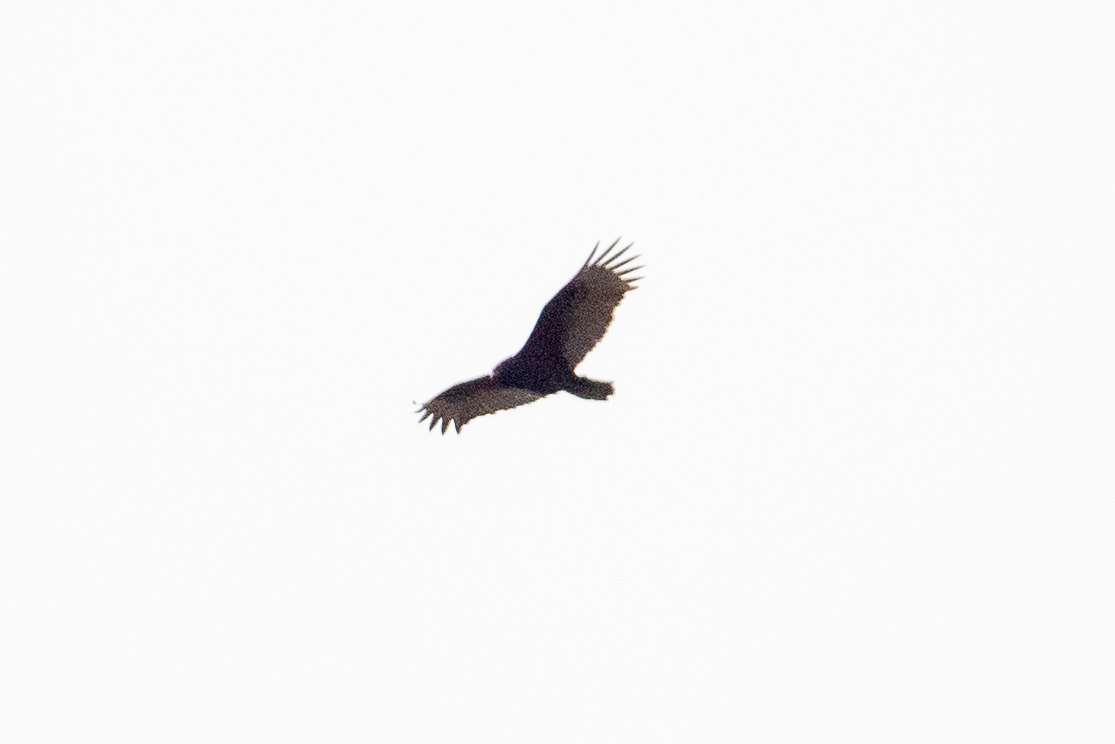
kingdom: Animalia
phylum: Chordata
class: Aves
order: Accipitriformes
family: Cathartidae
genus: Cathartes
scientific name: Cathartes aura
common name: Turkey vulture
